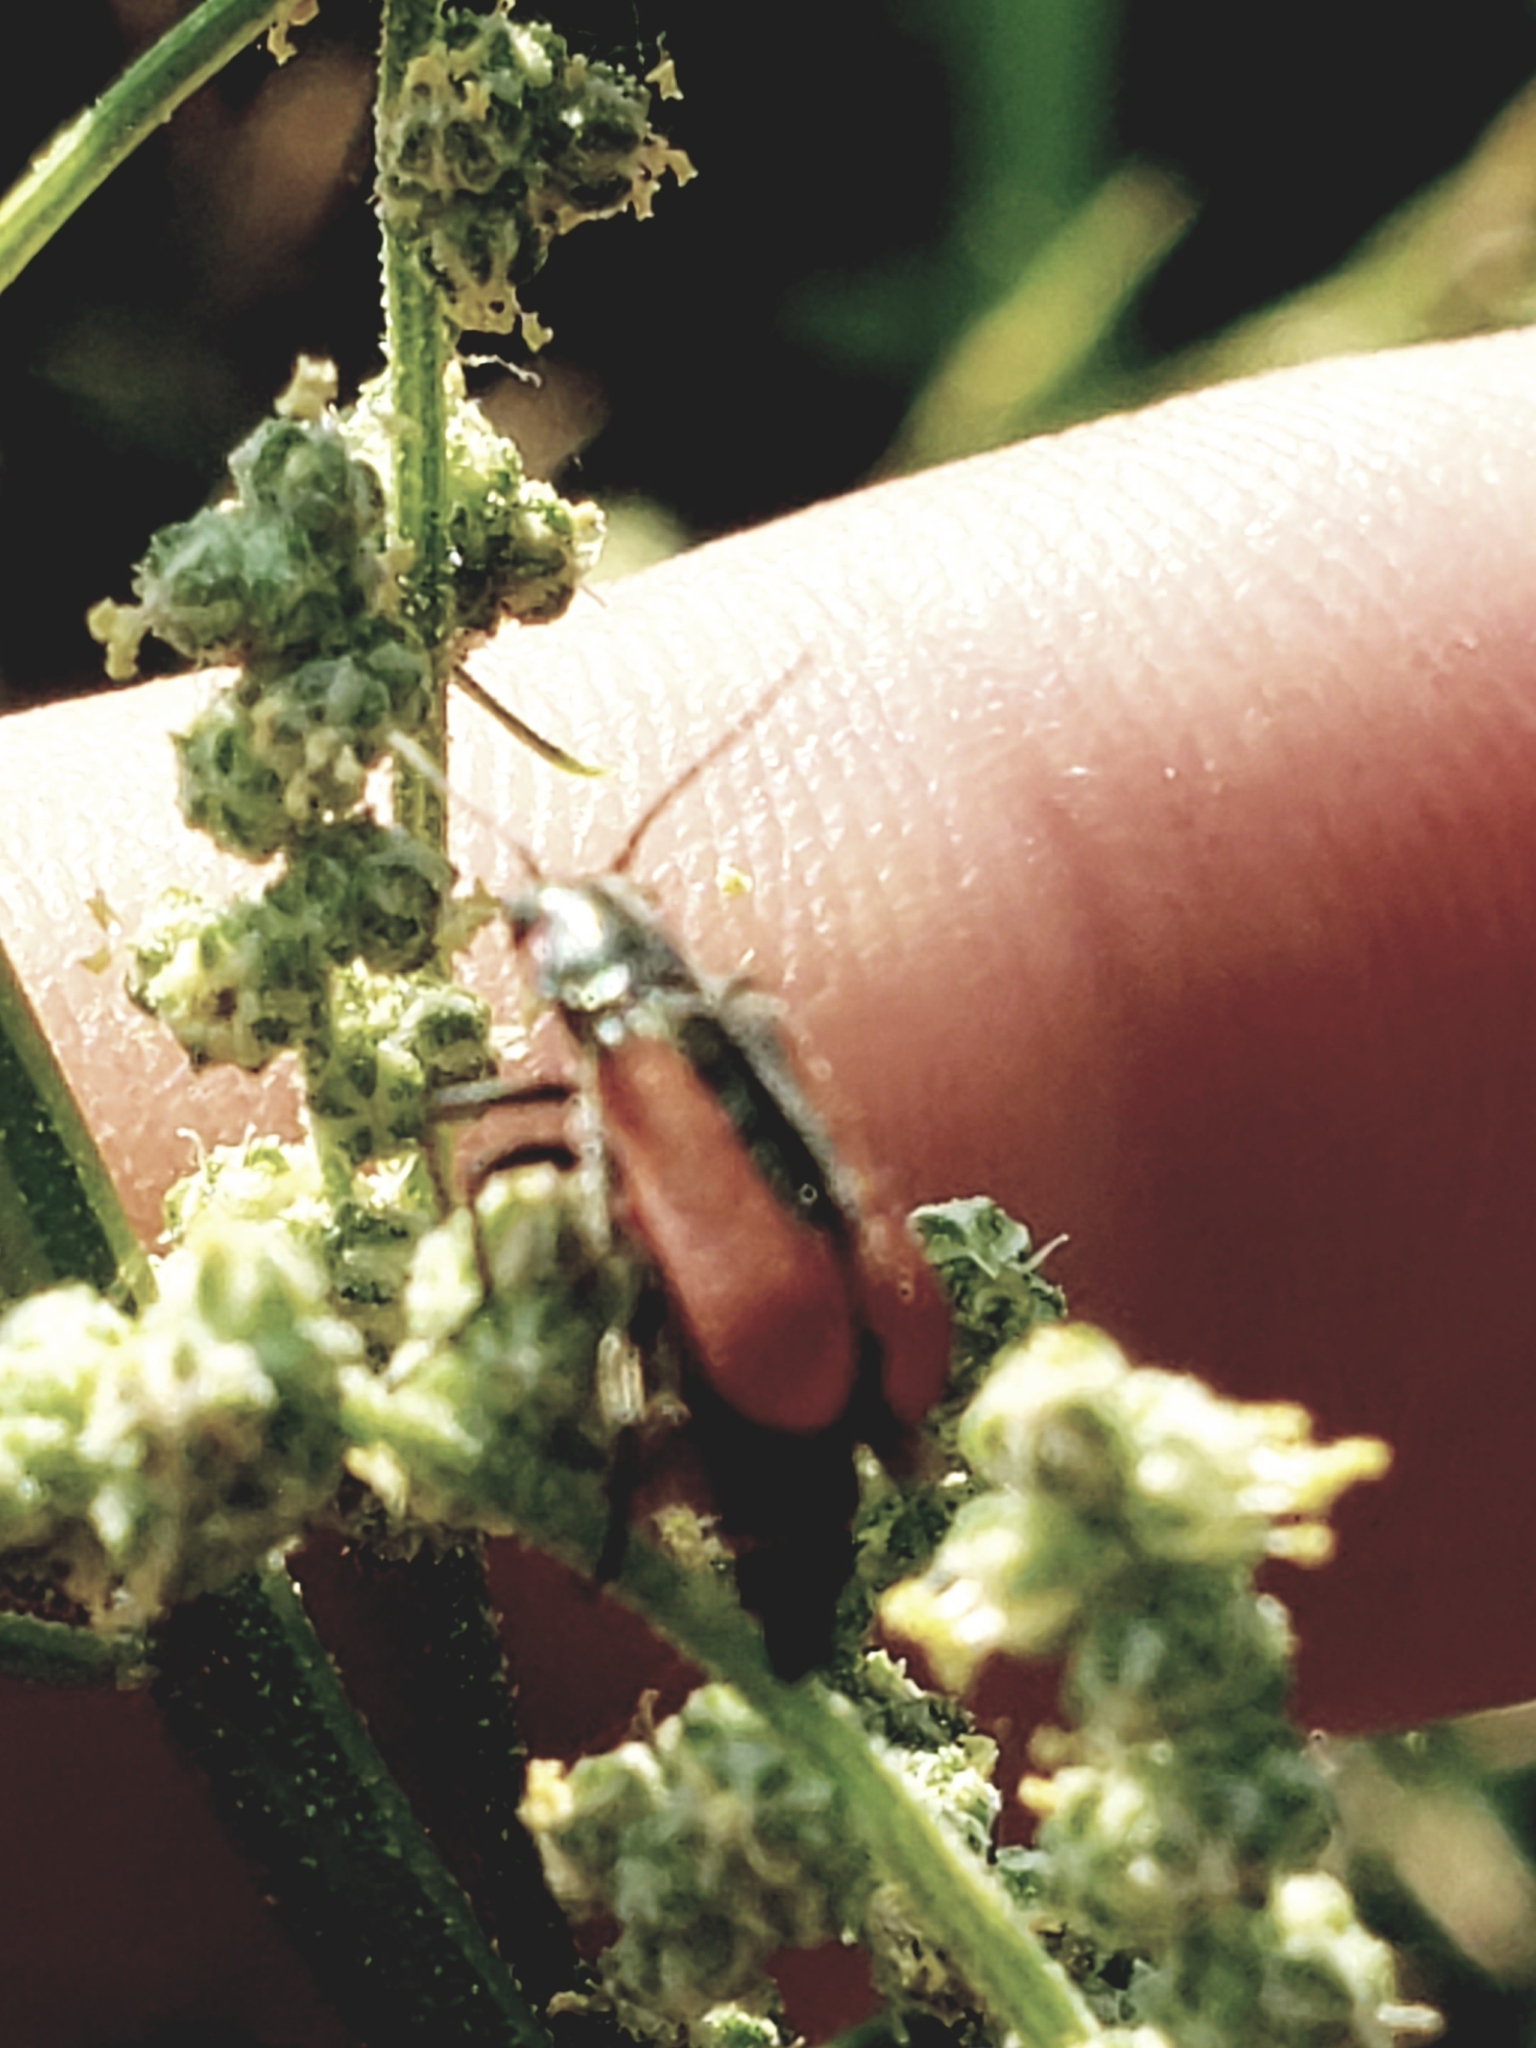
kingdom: Animalia
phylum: Arthropoda
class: Insecta
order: Coleoptera
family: Melyridae
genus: Malachius
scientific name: Malachius aeneus
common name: Scarlet malachite beetle
